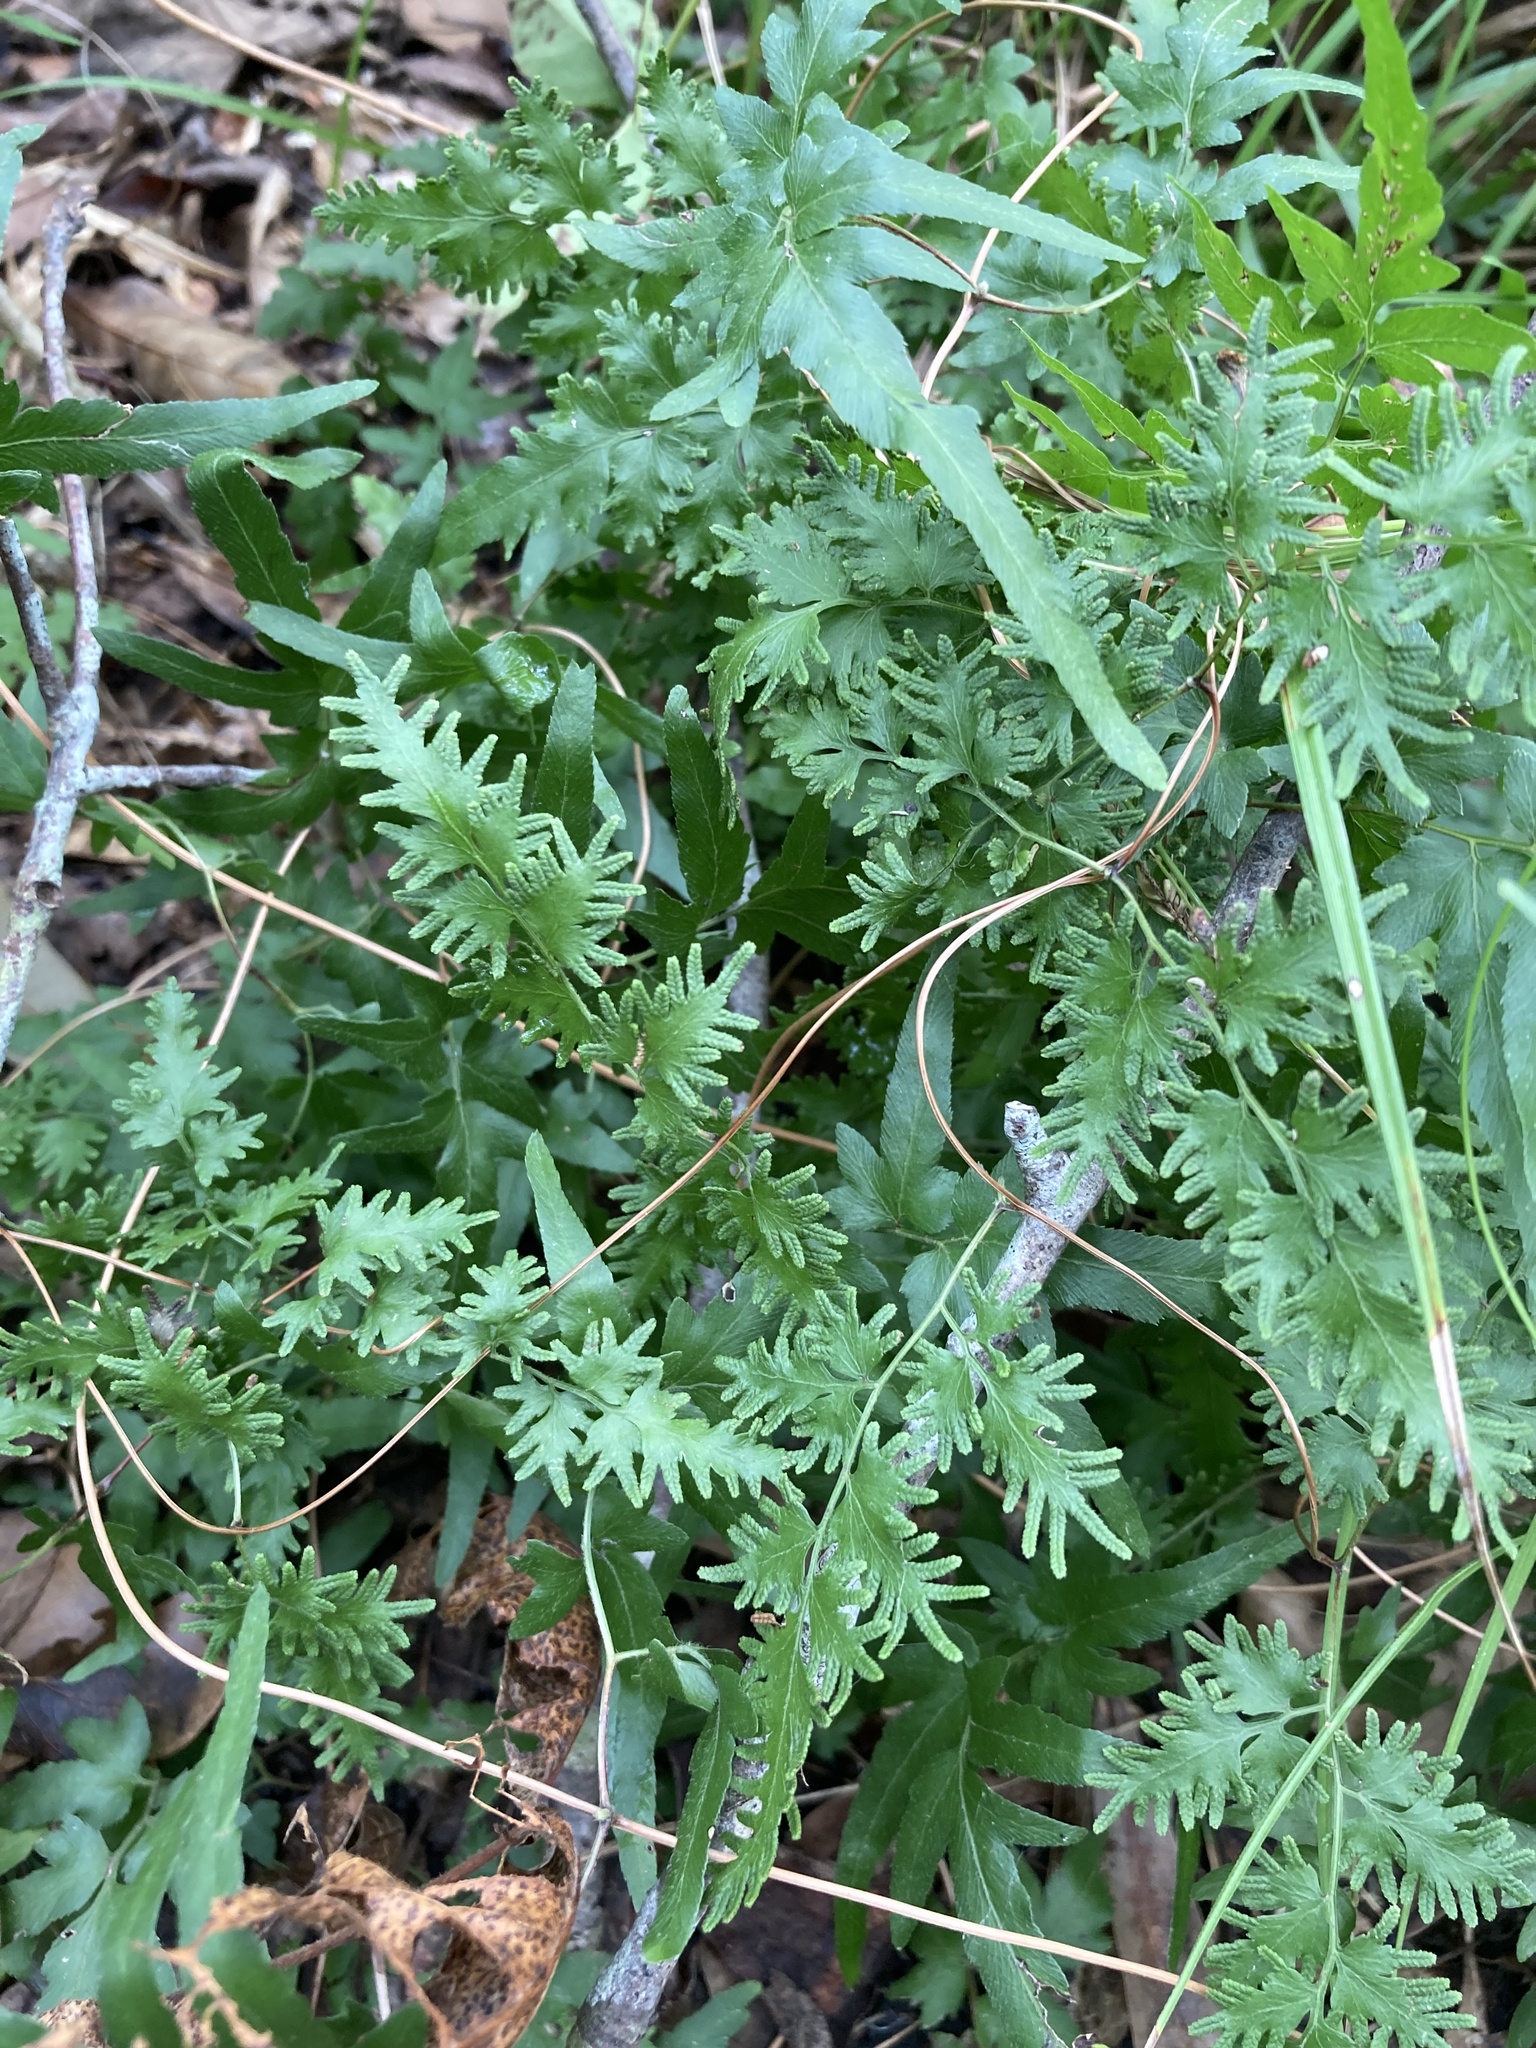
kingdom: Plantae
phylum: Tracheophyta
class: Polypodiopsida
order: Schizaeales
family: Lygodiaceae
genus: Lygodium
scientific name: Lygodium japonicum
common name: Japanese climbing fern
